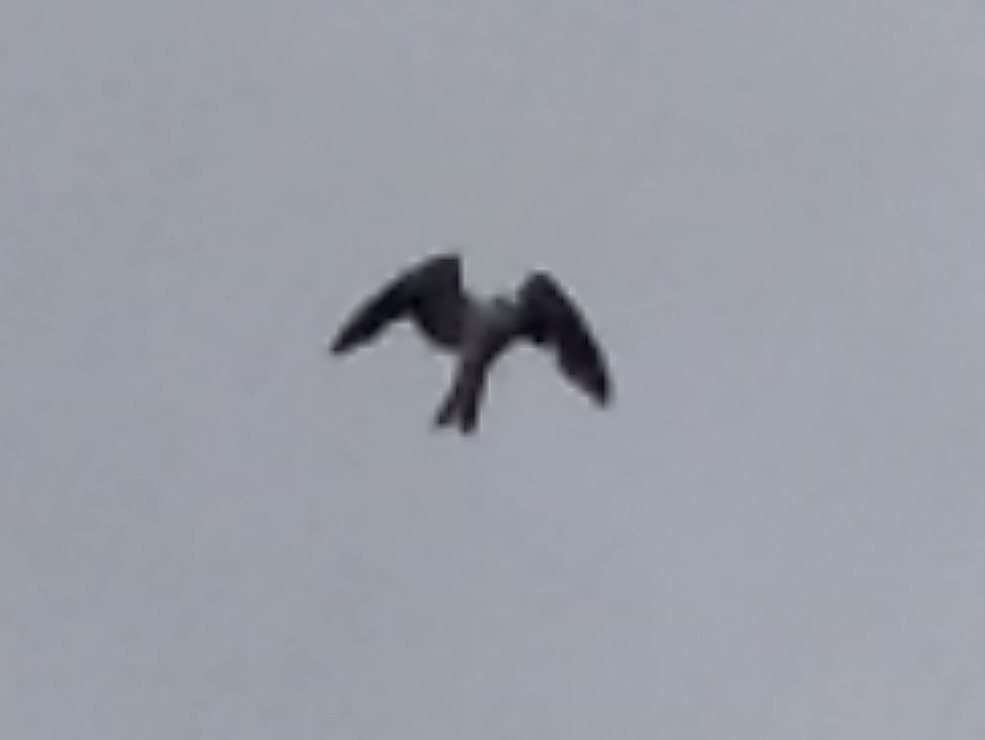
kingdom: Animalia
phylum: Chordata
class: Aves
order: Accipitriformes
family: Accipitridae
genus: Elanus
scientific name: Elanus caeruleus
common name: Black-winged kite
